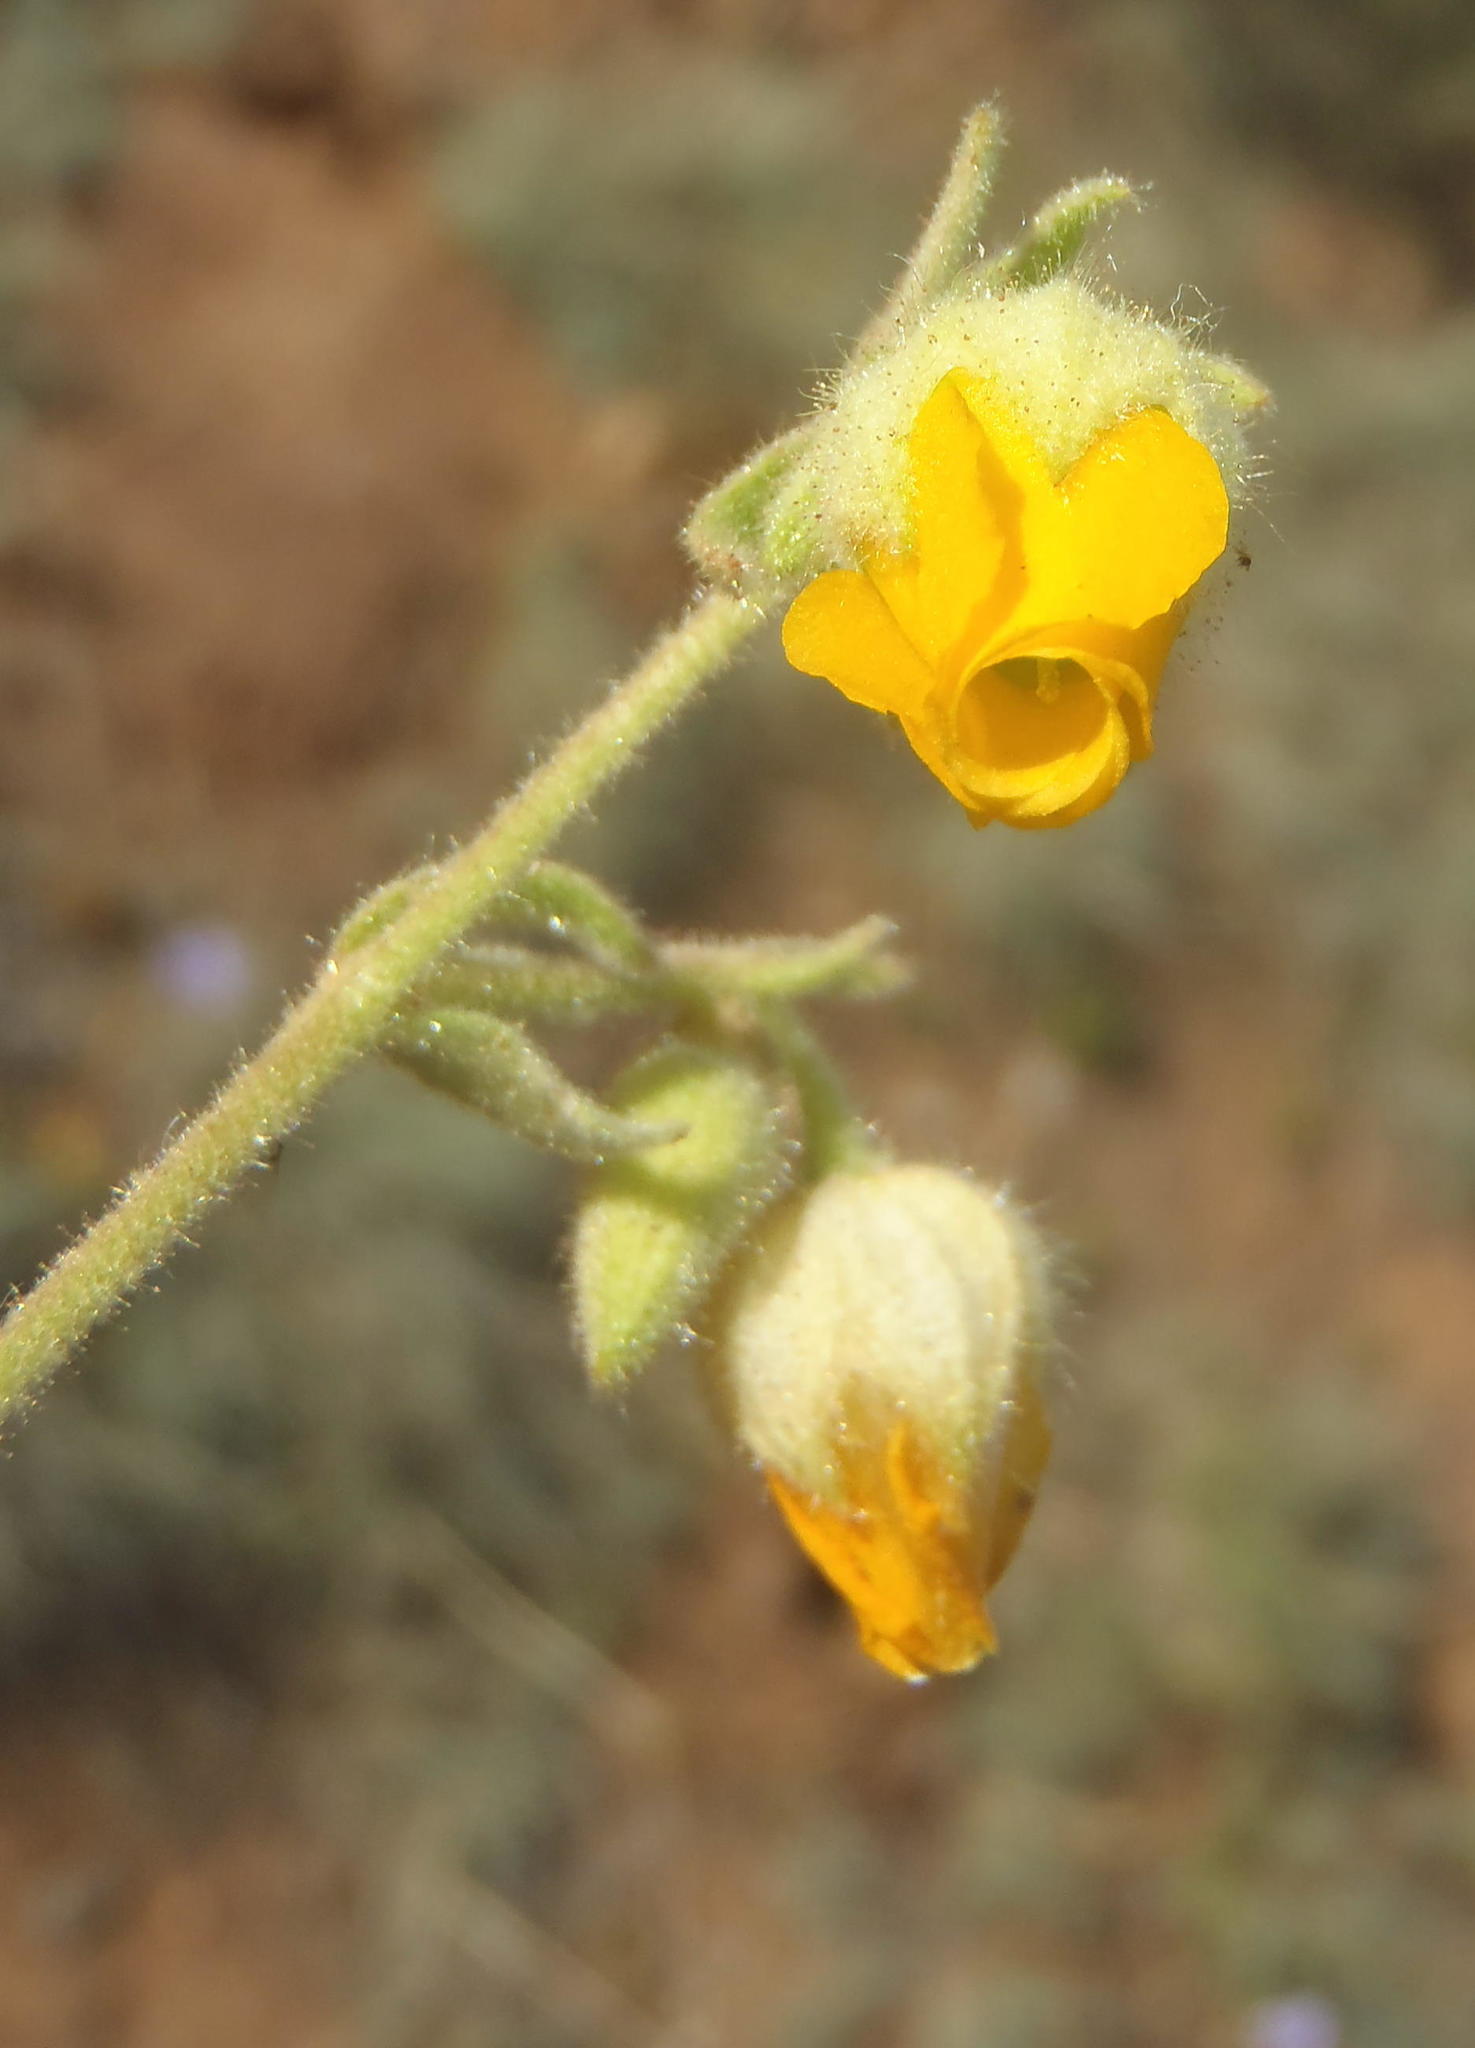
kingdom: Plantae
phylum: Tracheophyta
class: Magnoliopsida
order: Malvales
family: Malvaceae
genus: Hermannia
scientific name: Hermannia althaeifolia
